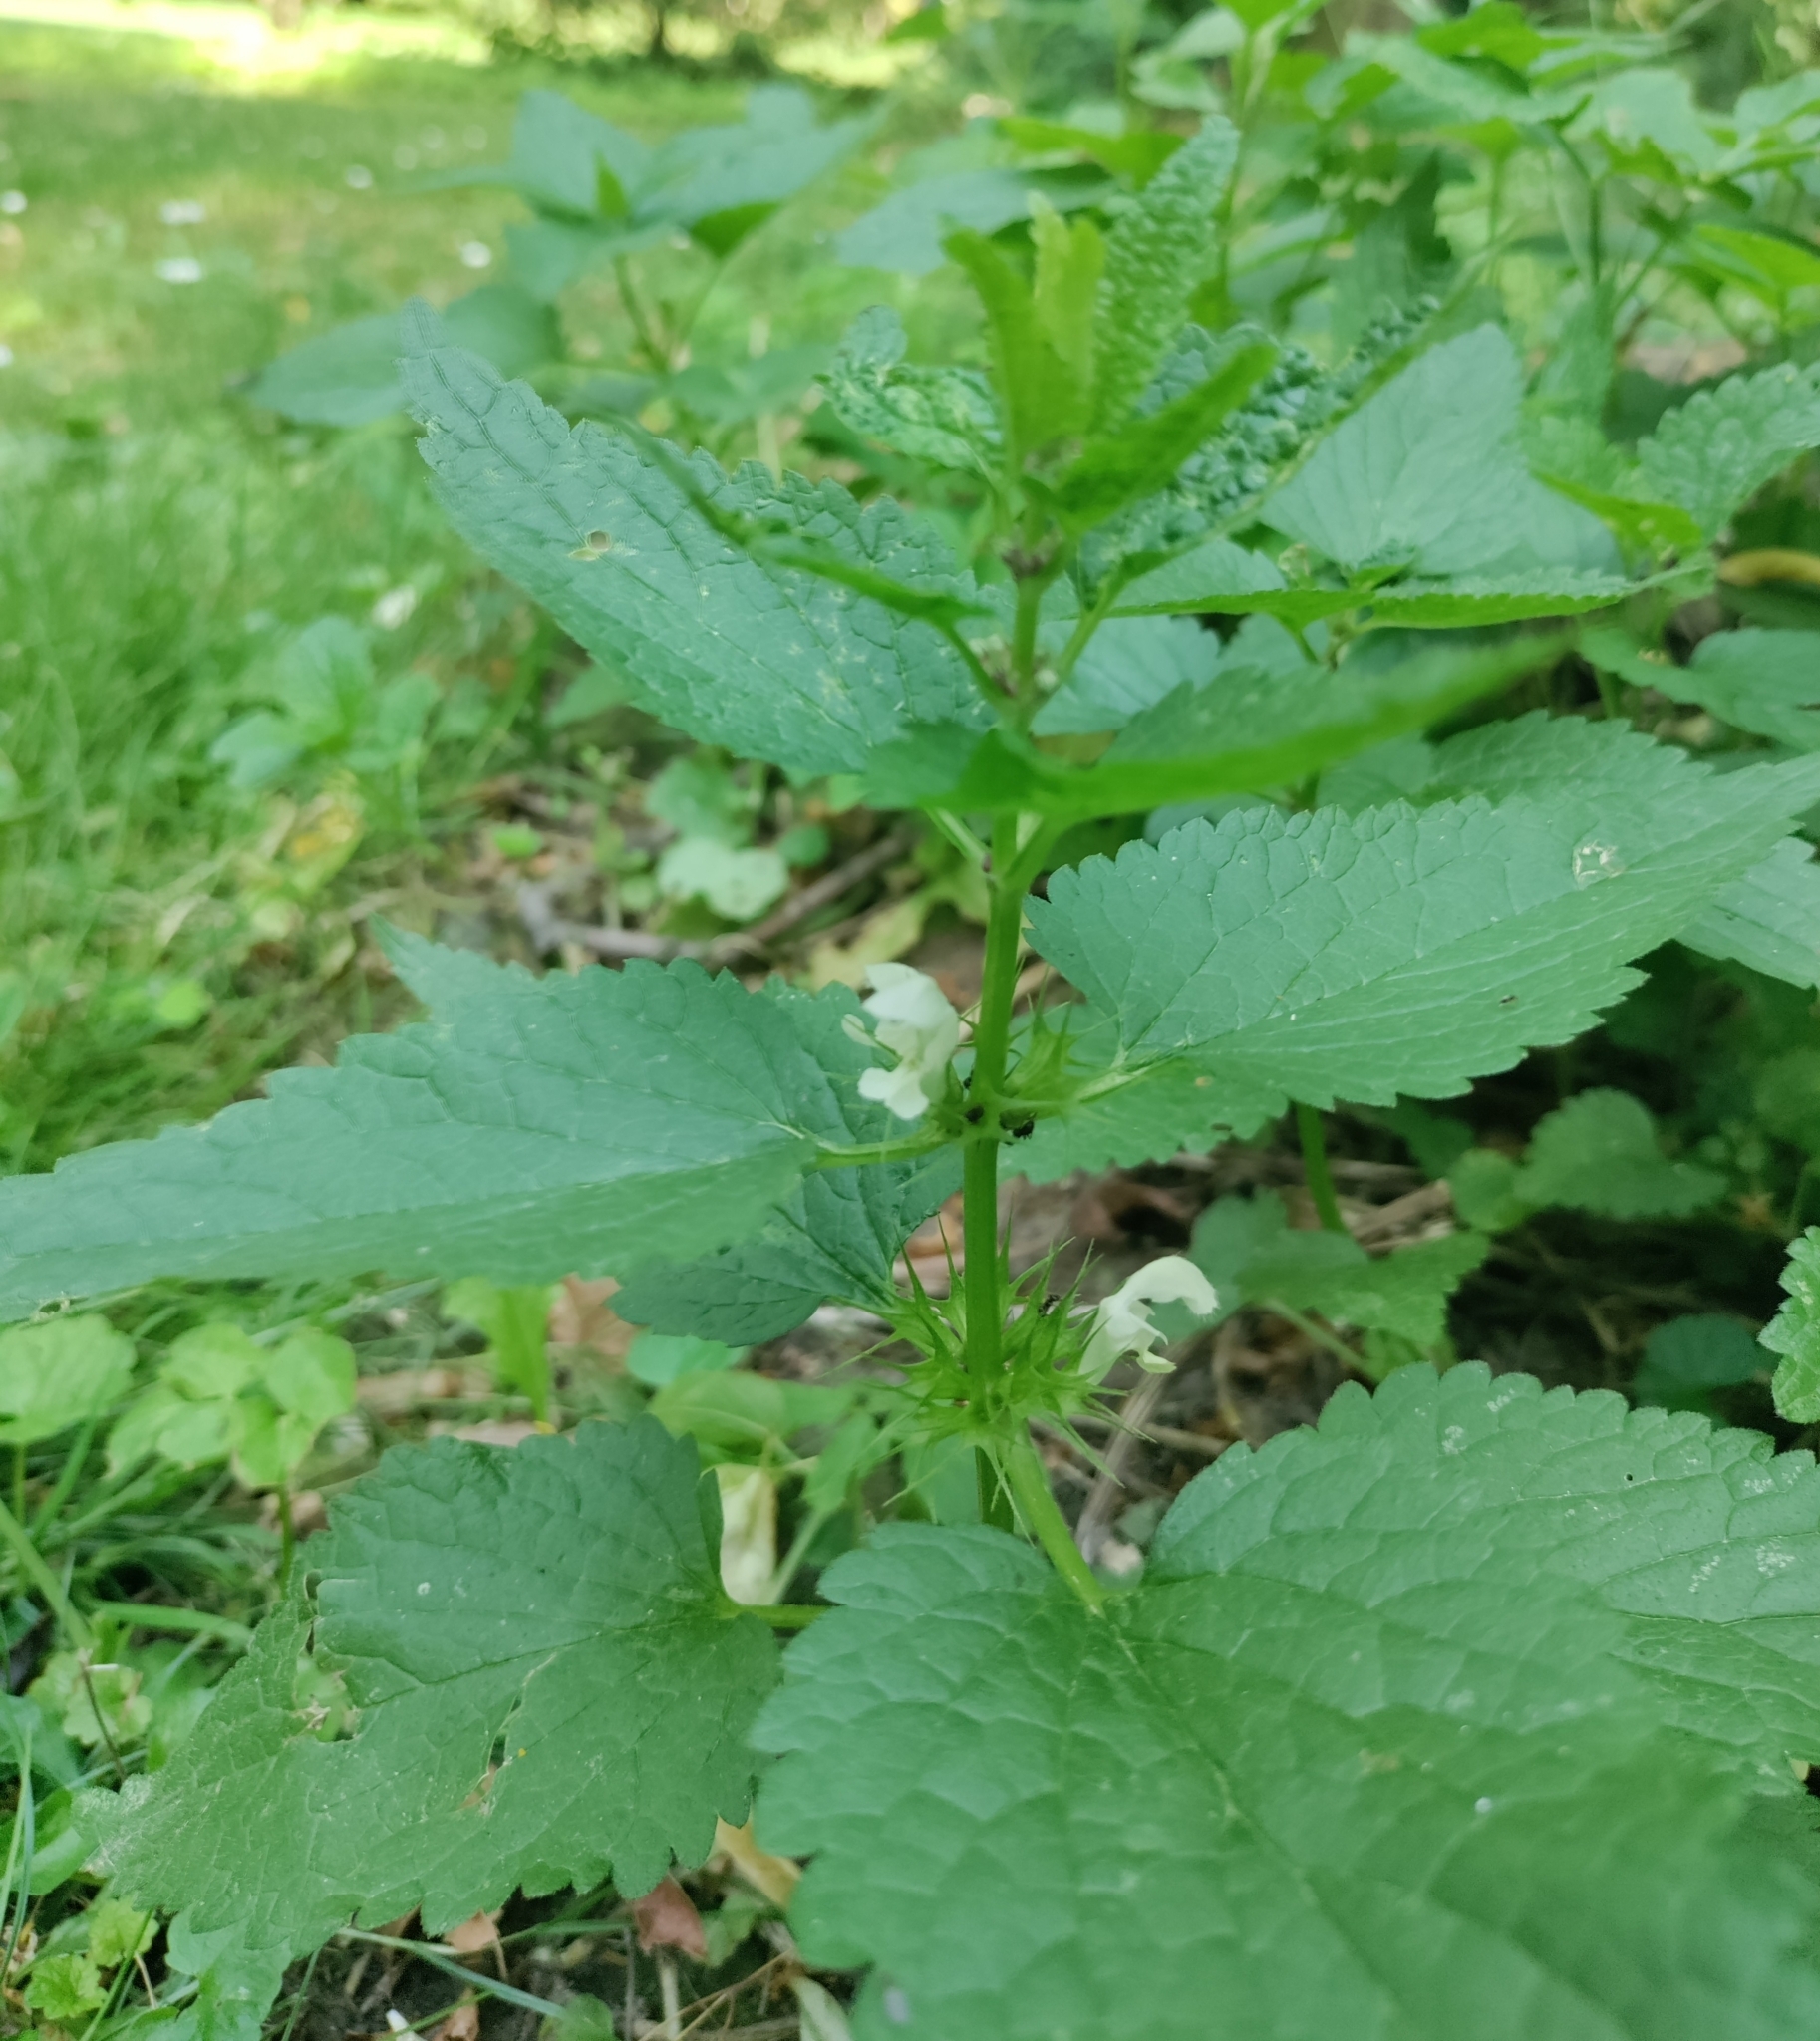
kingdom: Plantae
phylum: Tracheophyta
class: Magnoliopsida
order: Lamiales
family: Lamiaceae
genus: Lamium
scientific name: Lamium album
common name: White dead-nettle
